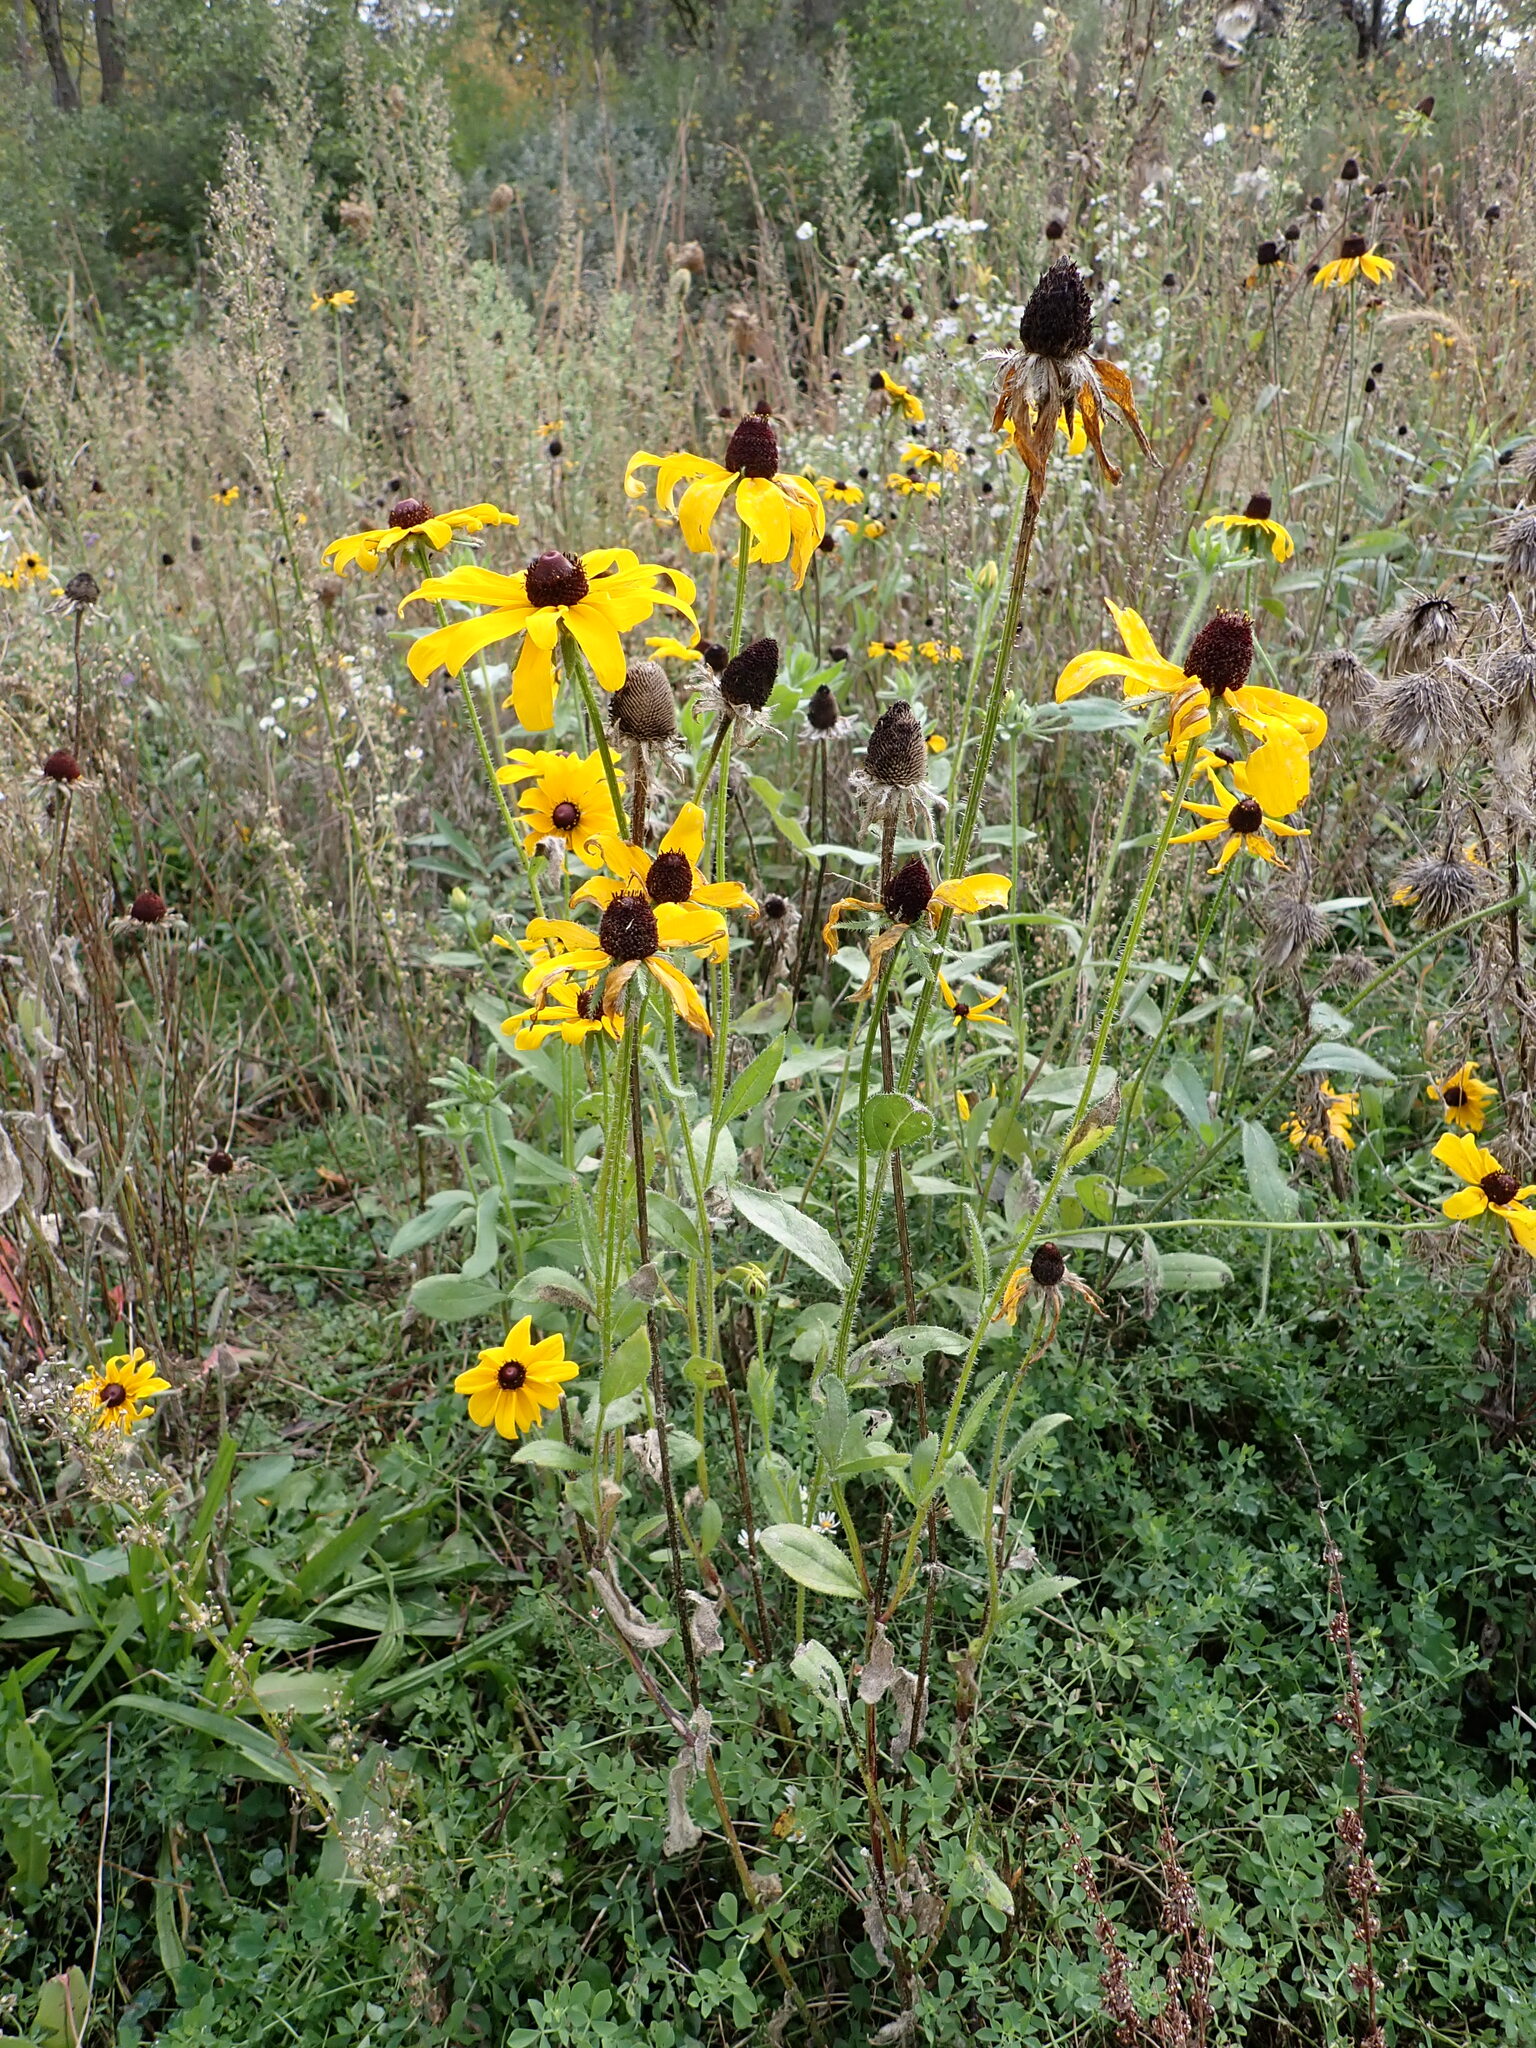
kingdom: Plantae
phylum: Tracheophyta
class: Magnoliopsida
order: Asterales
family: Asteraceae
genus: Rudbeckia
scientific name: Rudbeckia hirta
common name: Black-eyed-susan
